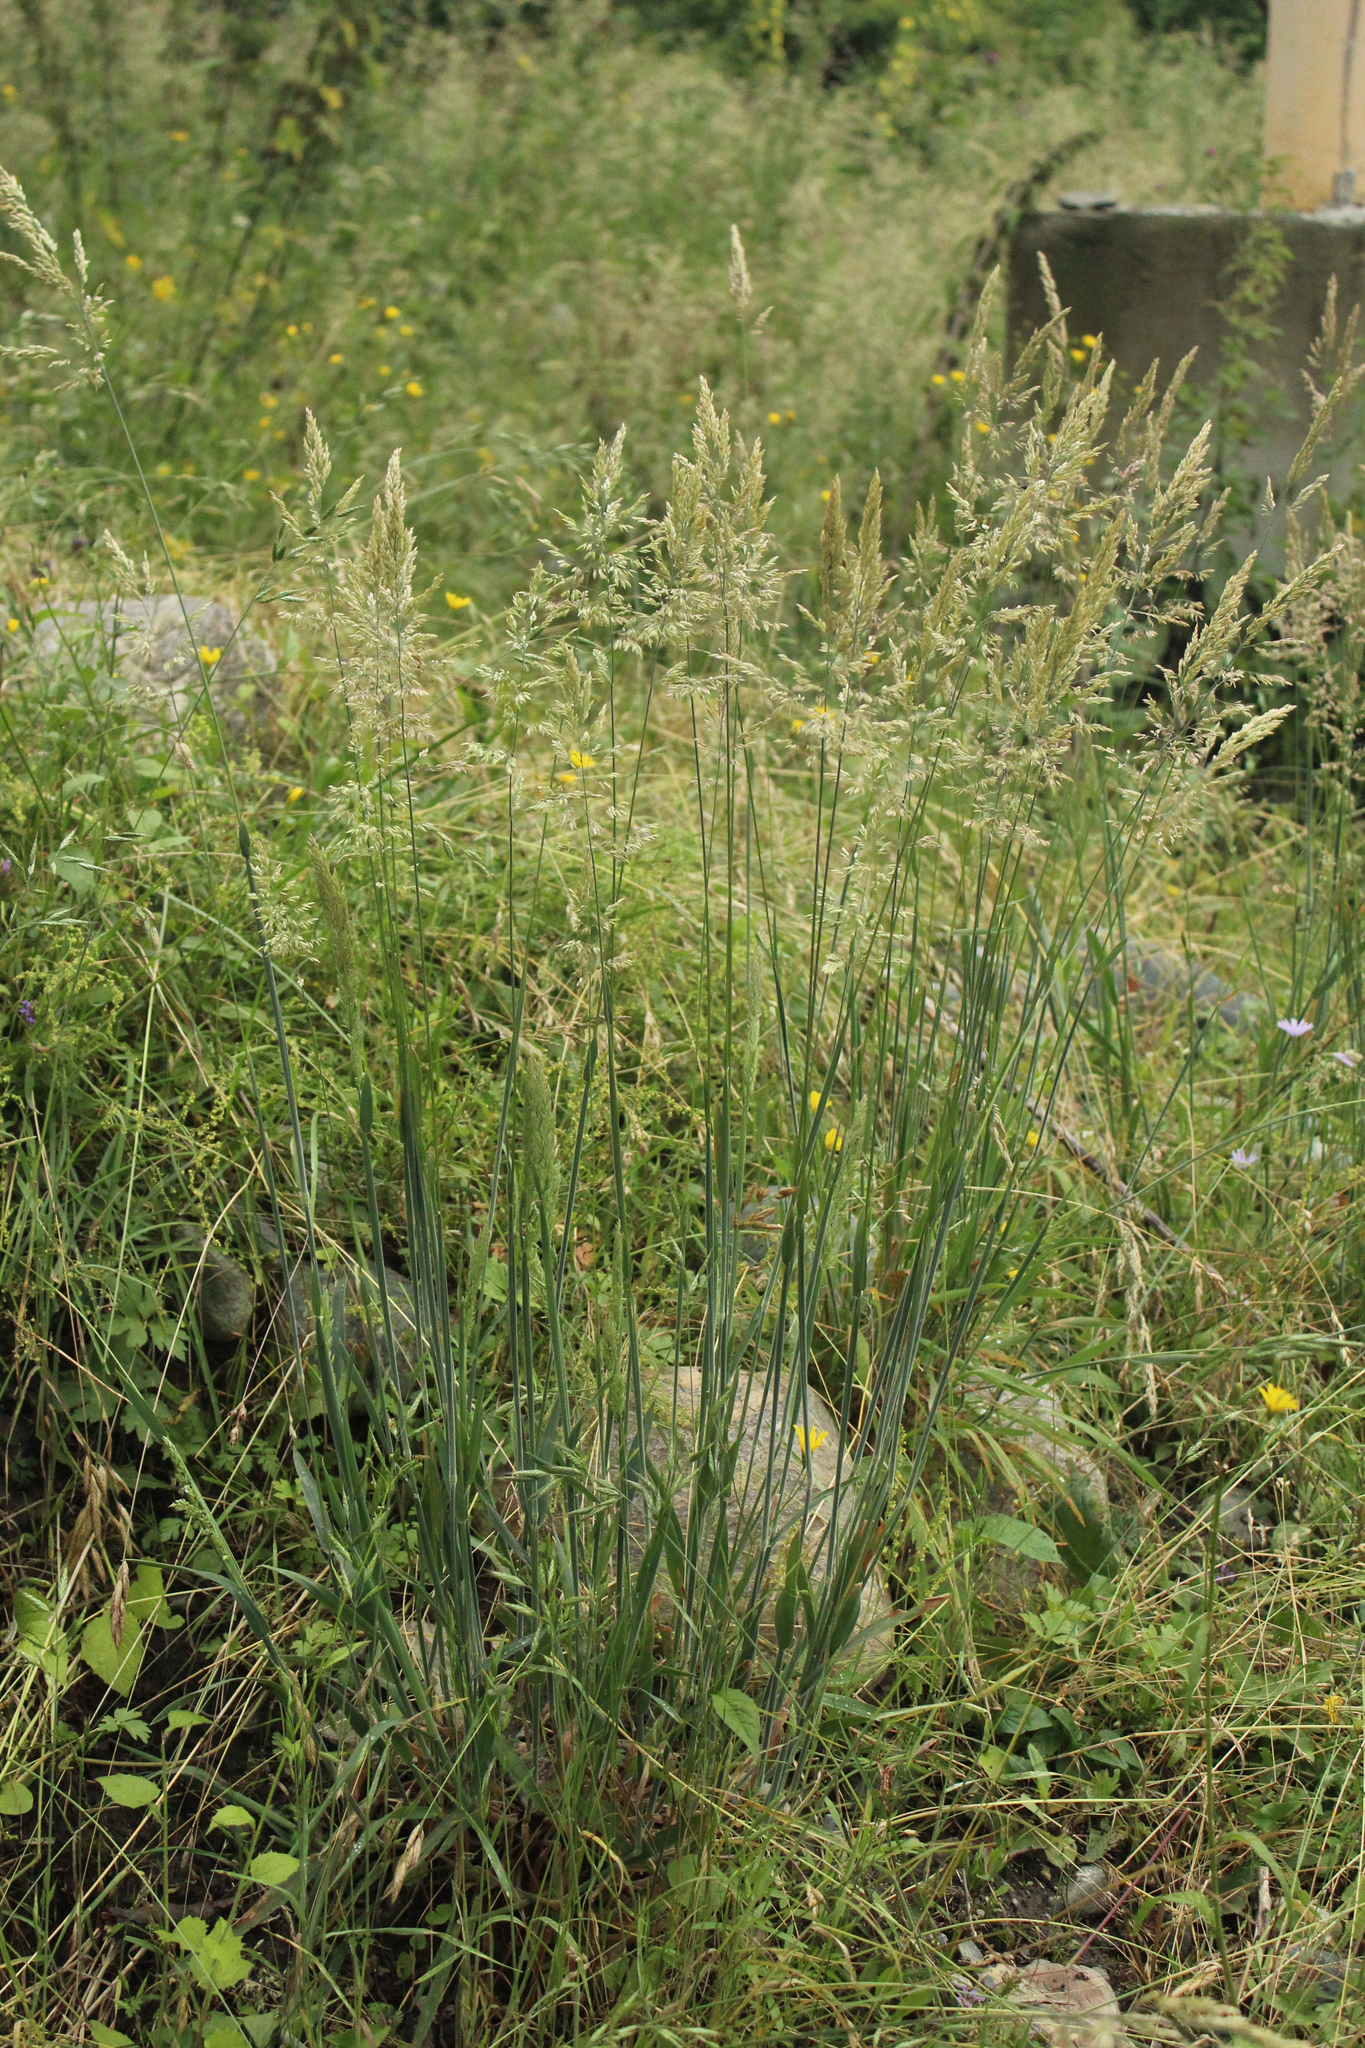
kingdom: Plantae
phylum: Tracheophyta
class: Liliopsida
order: Poales
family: Poaceae
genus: Holcus
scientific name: Holcus lanatus
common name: Yorkshire-fog
